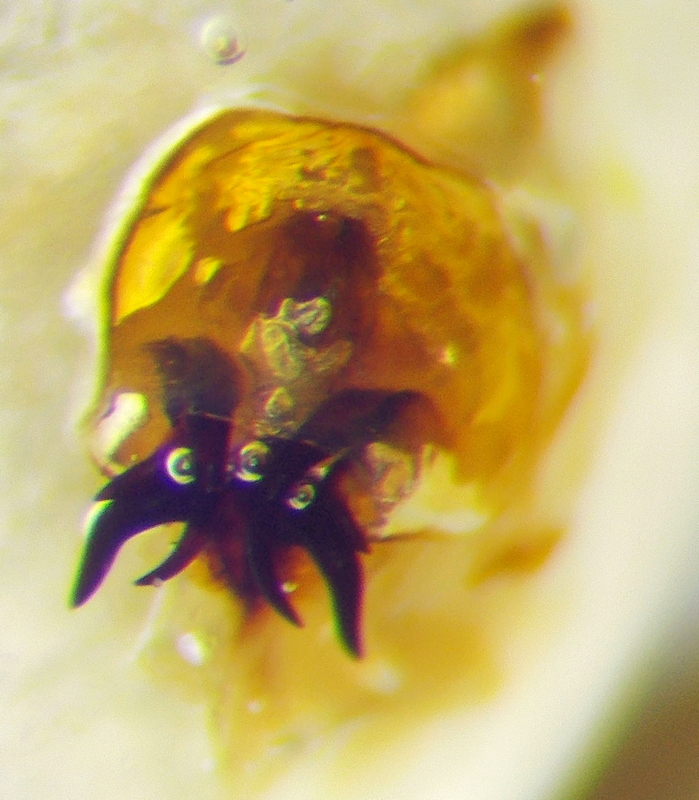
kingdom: Animalia
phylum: Arthropoda
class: Insecta
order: Hemiptera
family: Scutelleridae
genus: Eurygaster
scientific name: Eurygaster dilaticollis
